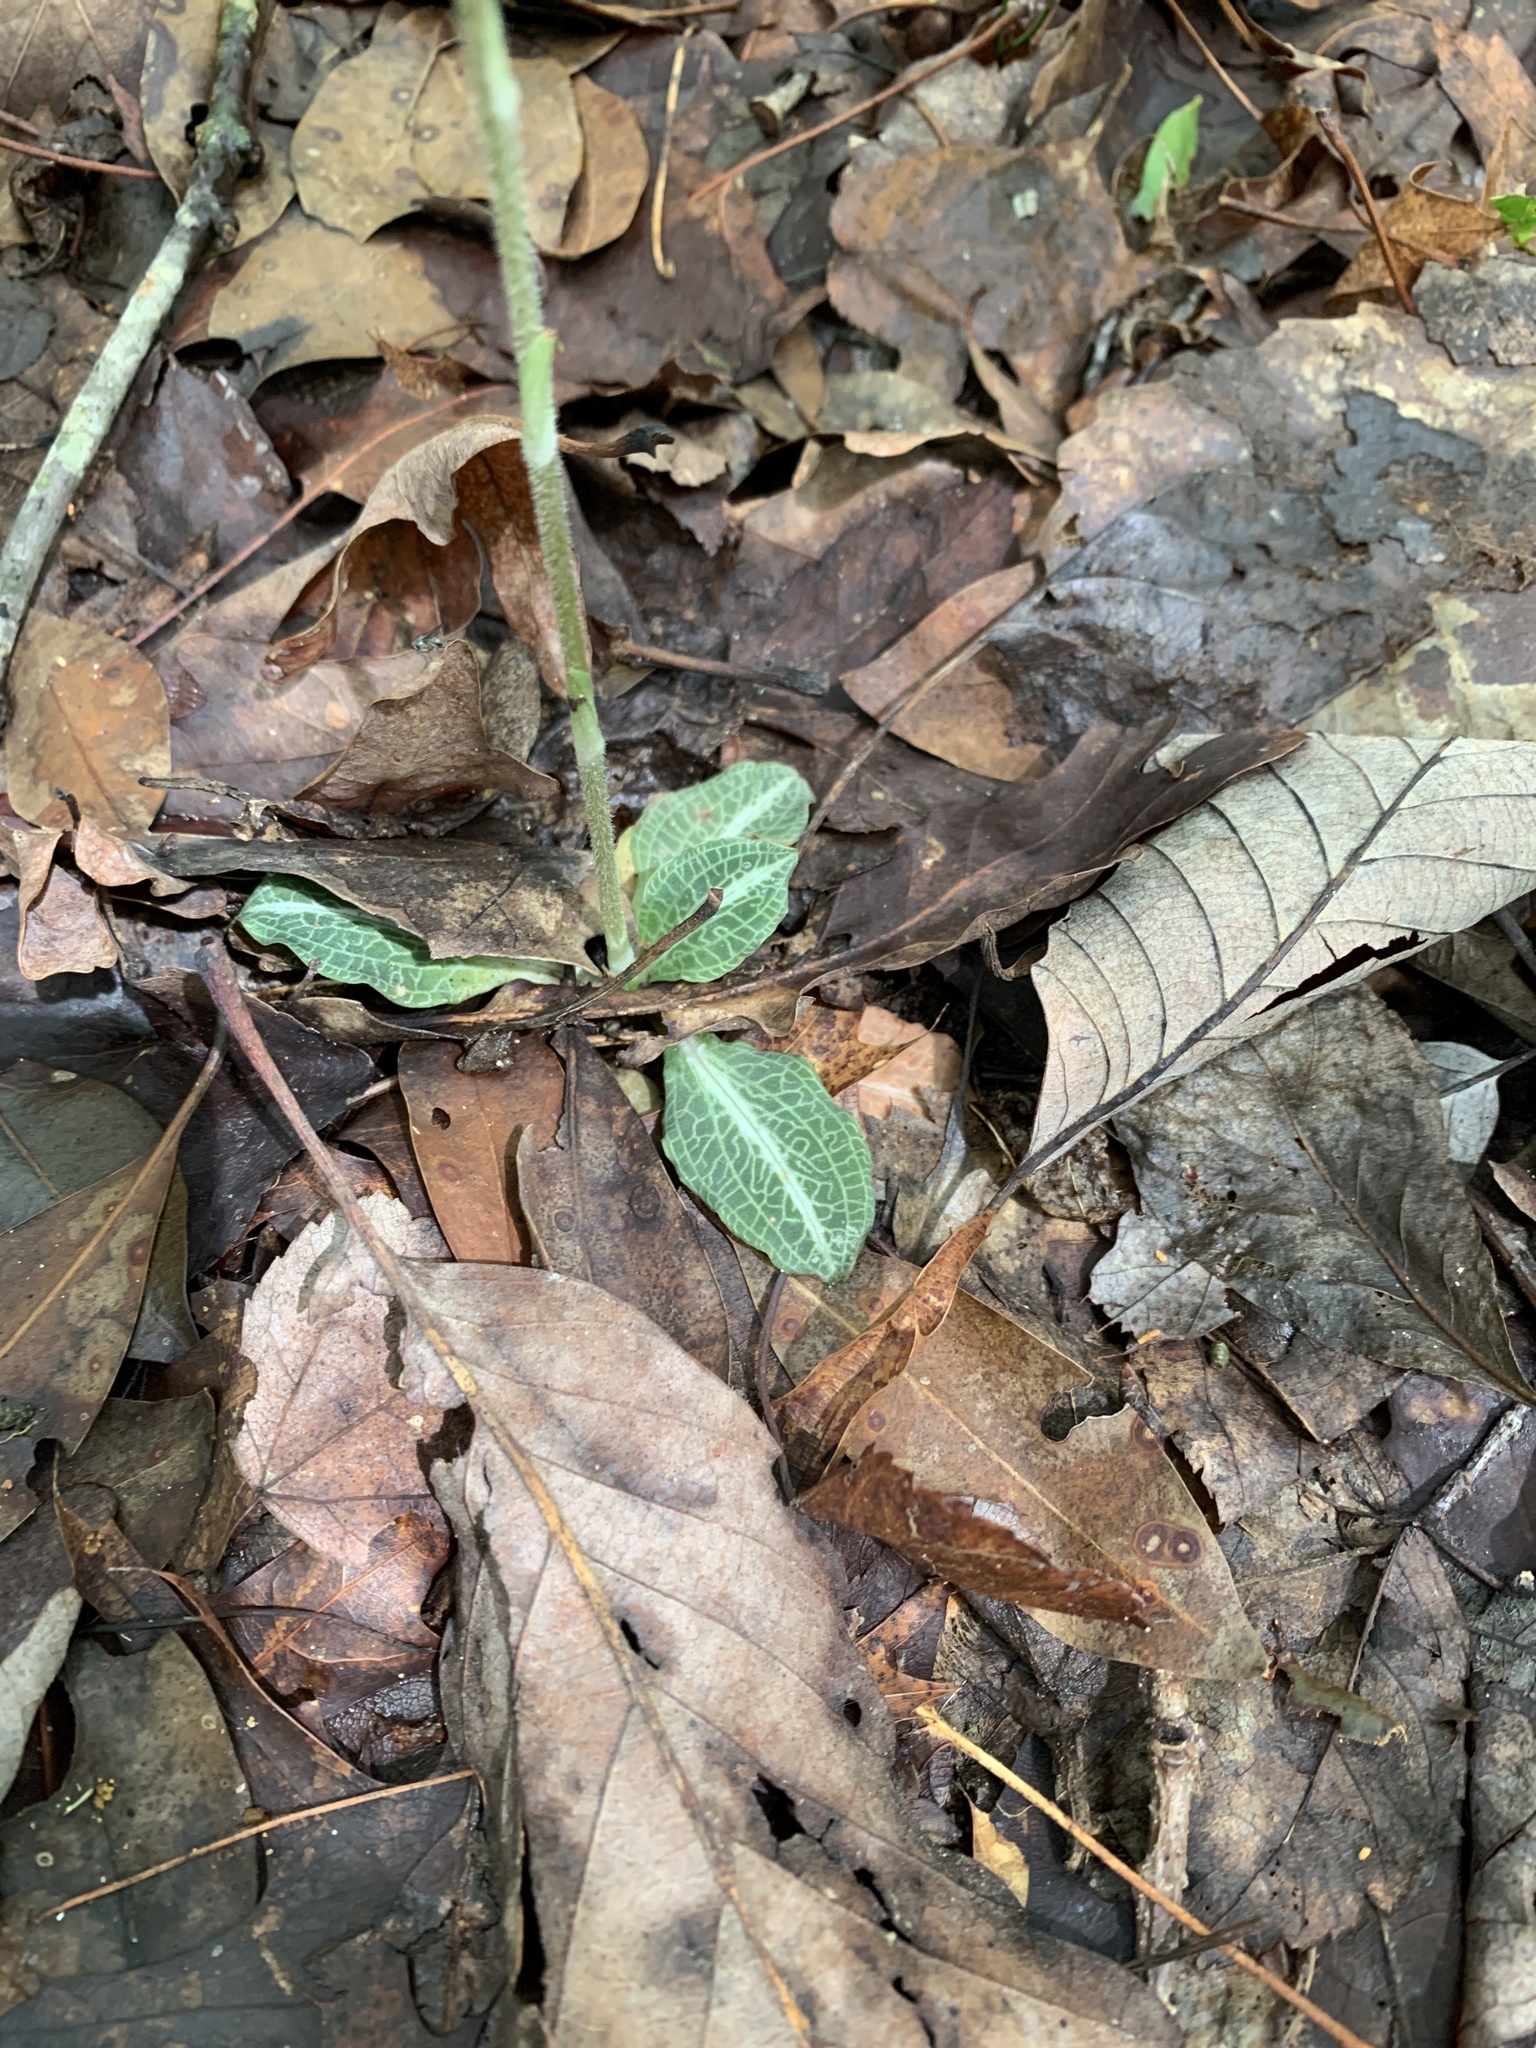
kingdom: Plantae
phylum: Tracheophyta
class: Liliopsida
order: Asparagales
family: Orchidaceae
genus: Goodyera
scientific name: Goodyera pubescens
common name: Downy rattlesnake-plantain
